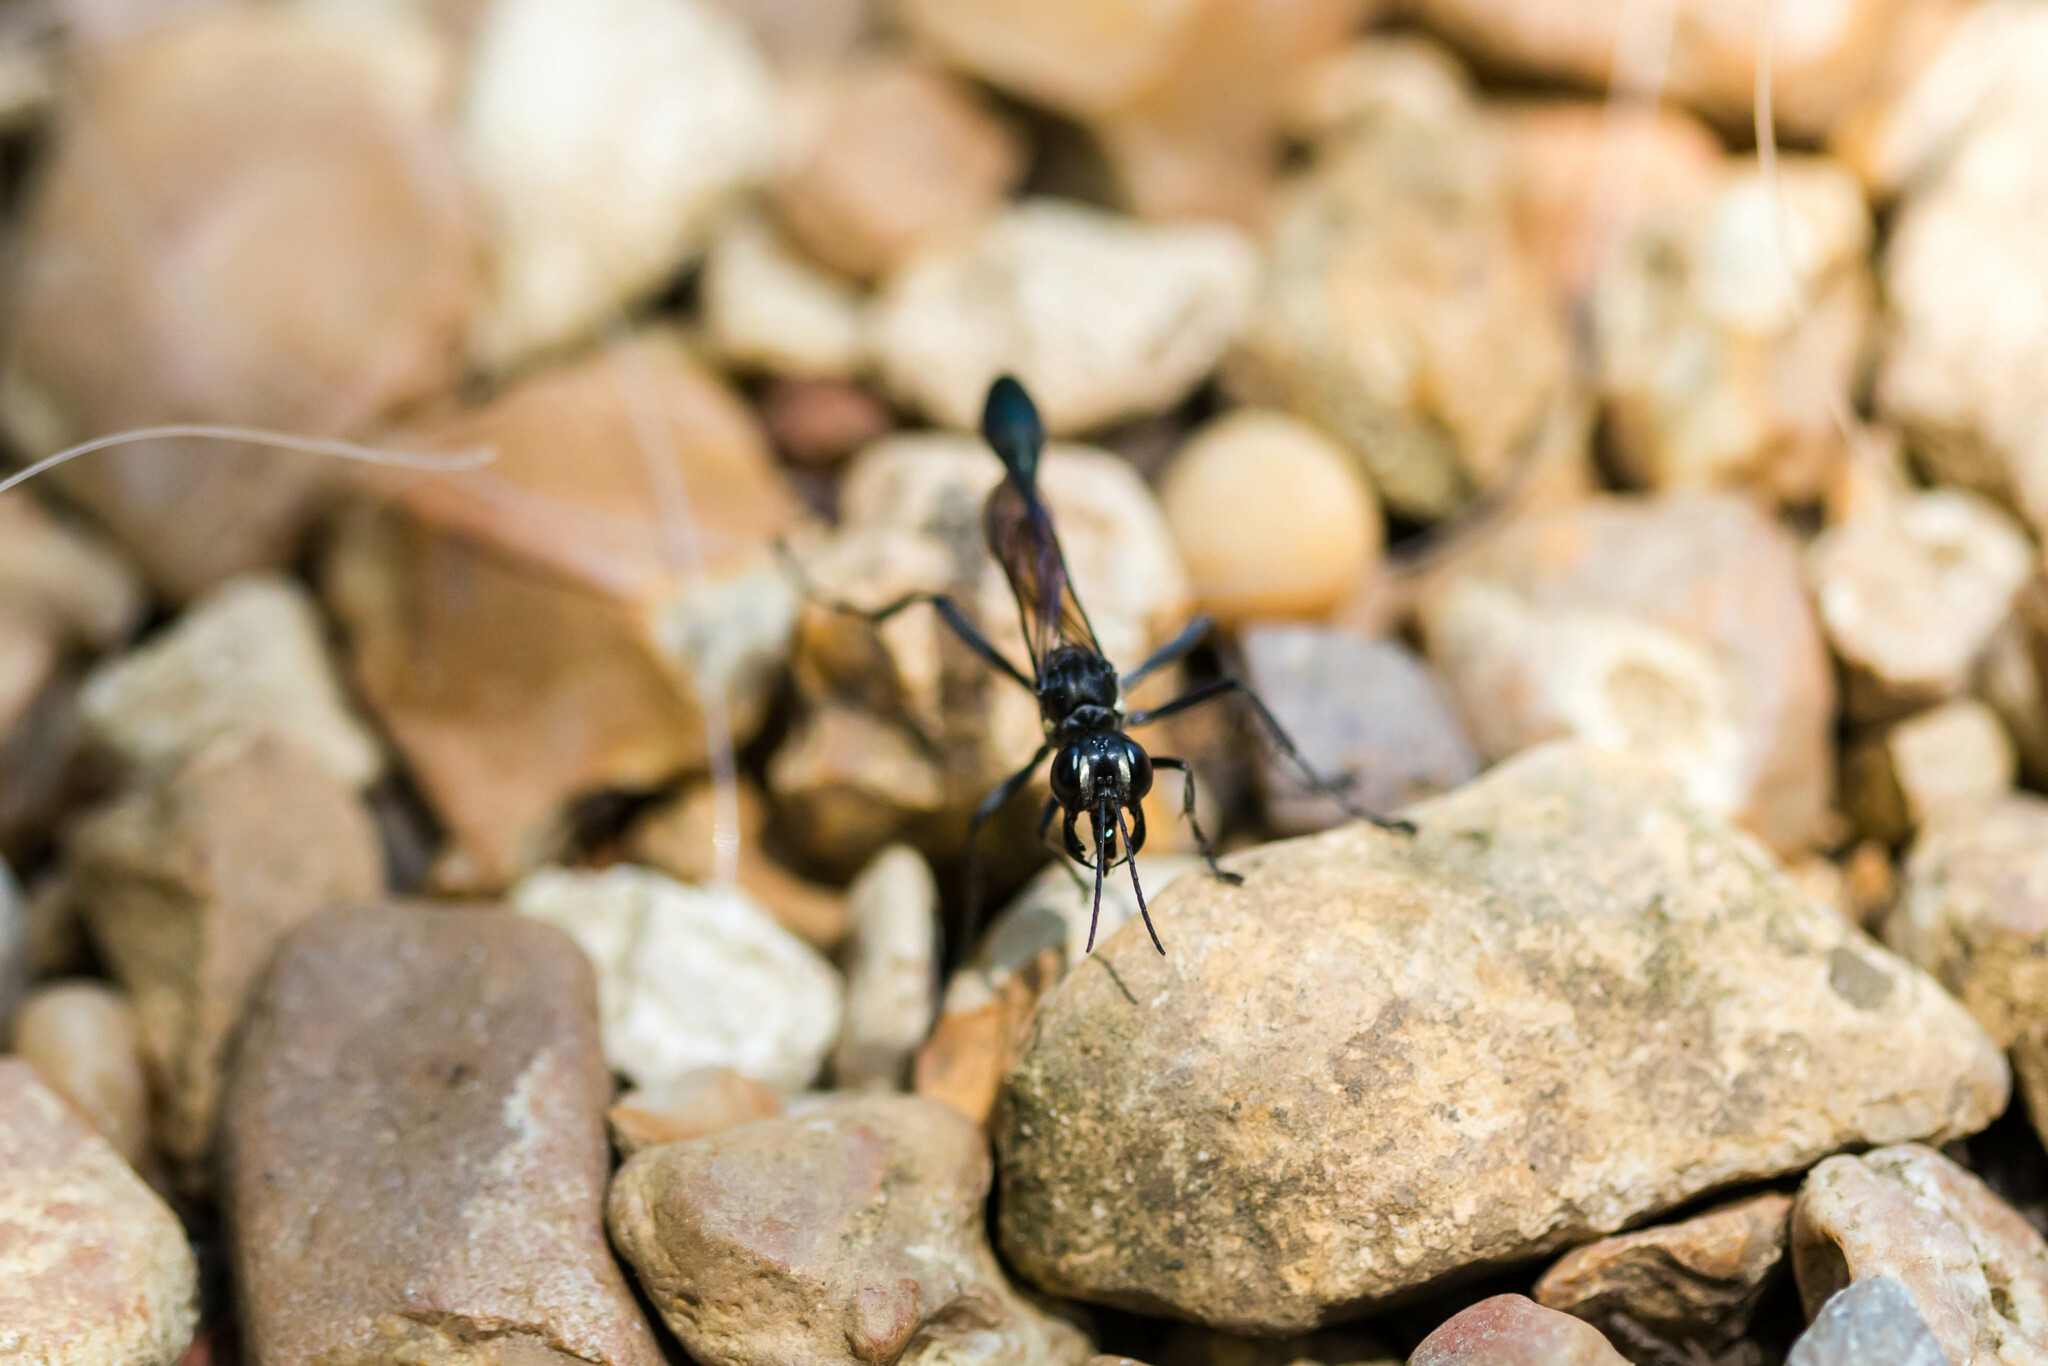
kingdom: Animalia
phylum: Arthropoda
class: Insecta
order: Hymenoptera
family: Sphecidae
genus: Eremnophila
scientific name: Eremnophila aureonotata
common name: Gold-marked thread-waisted wasp
